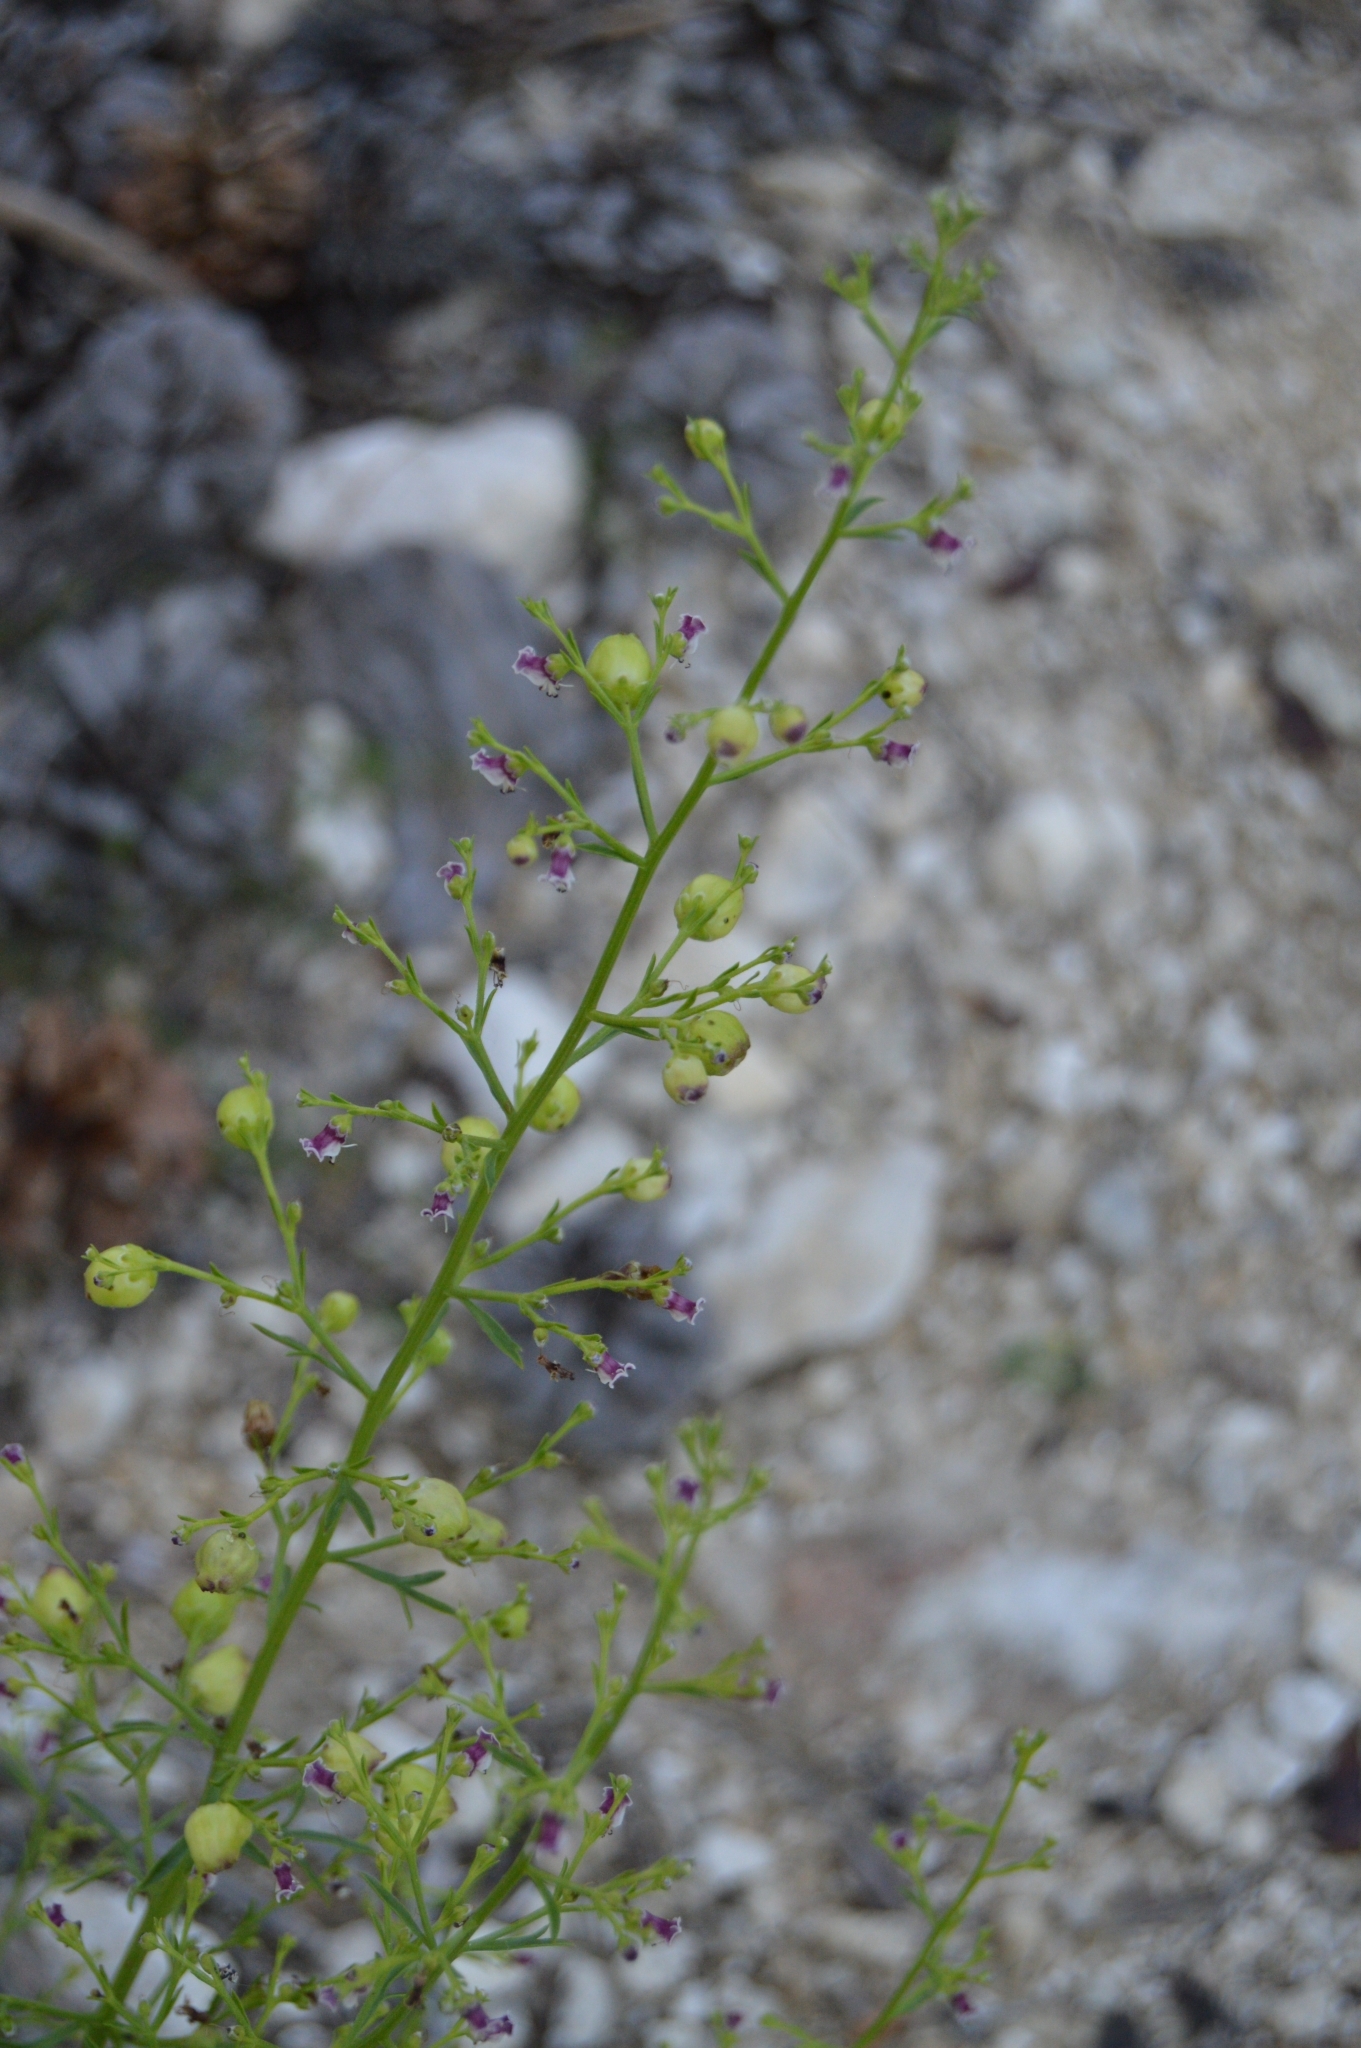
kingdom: Plantae
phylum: Tracheophyta
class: Magnoliopsida
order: Lamiales
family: Scrophulariaceae
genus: Scrophularia
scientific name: Scrophularia canina
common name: French figwort
